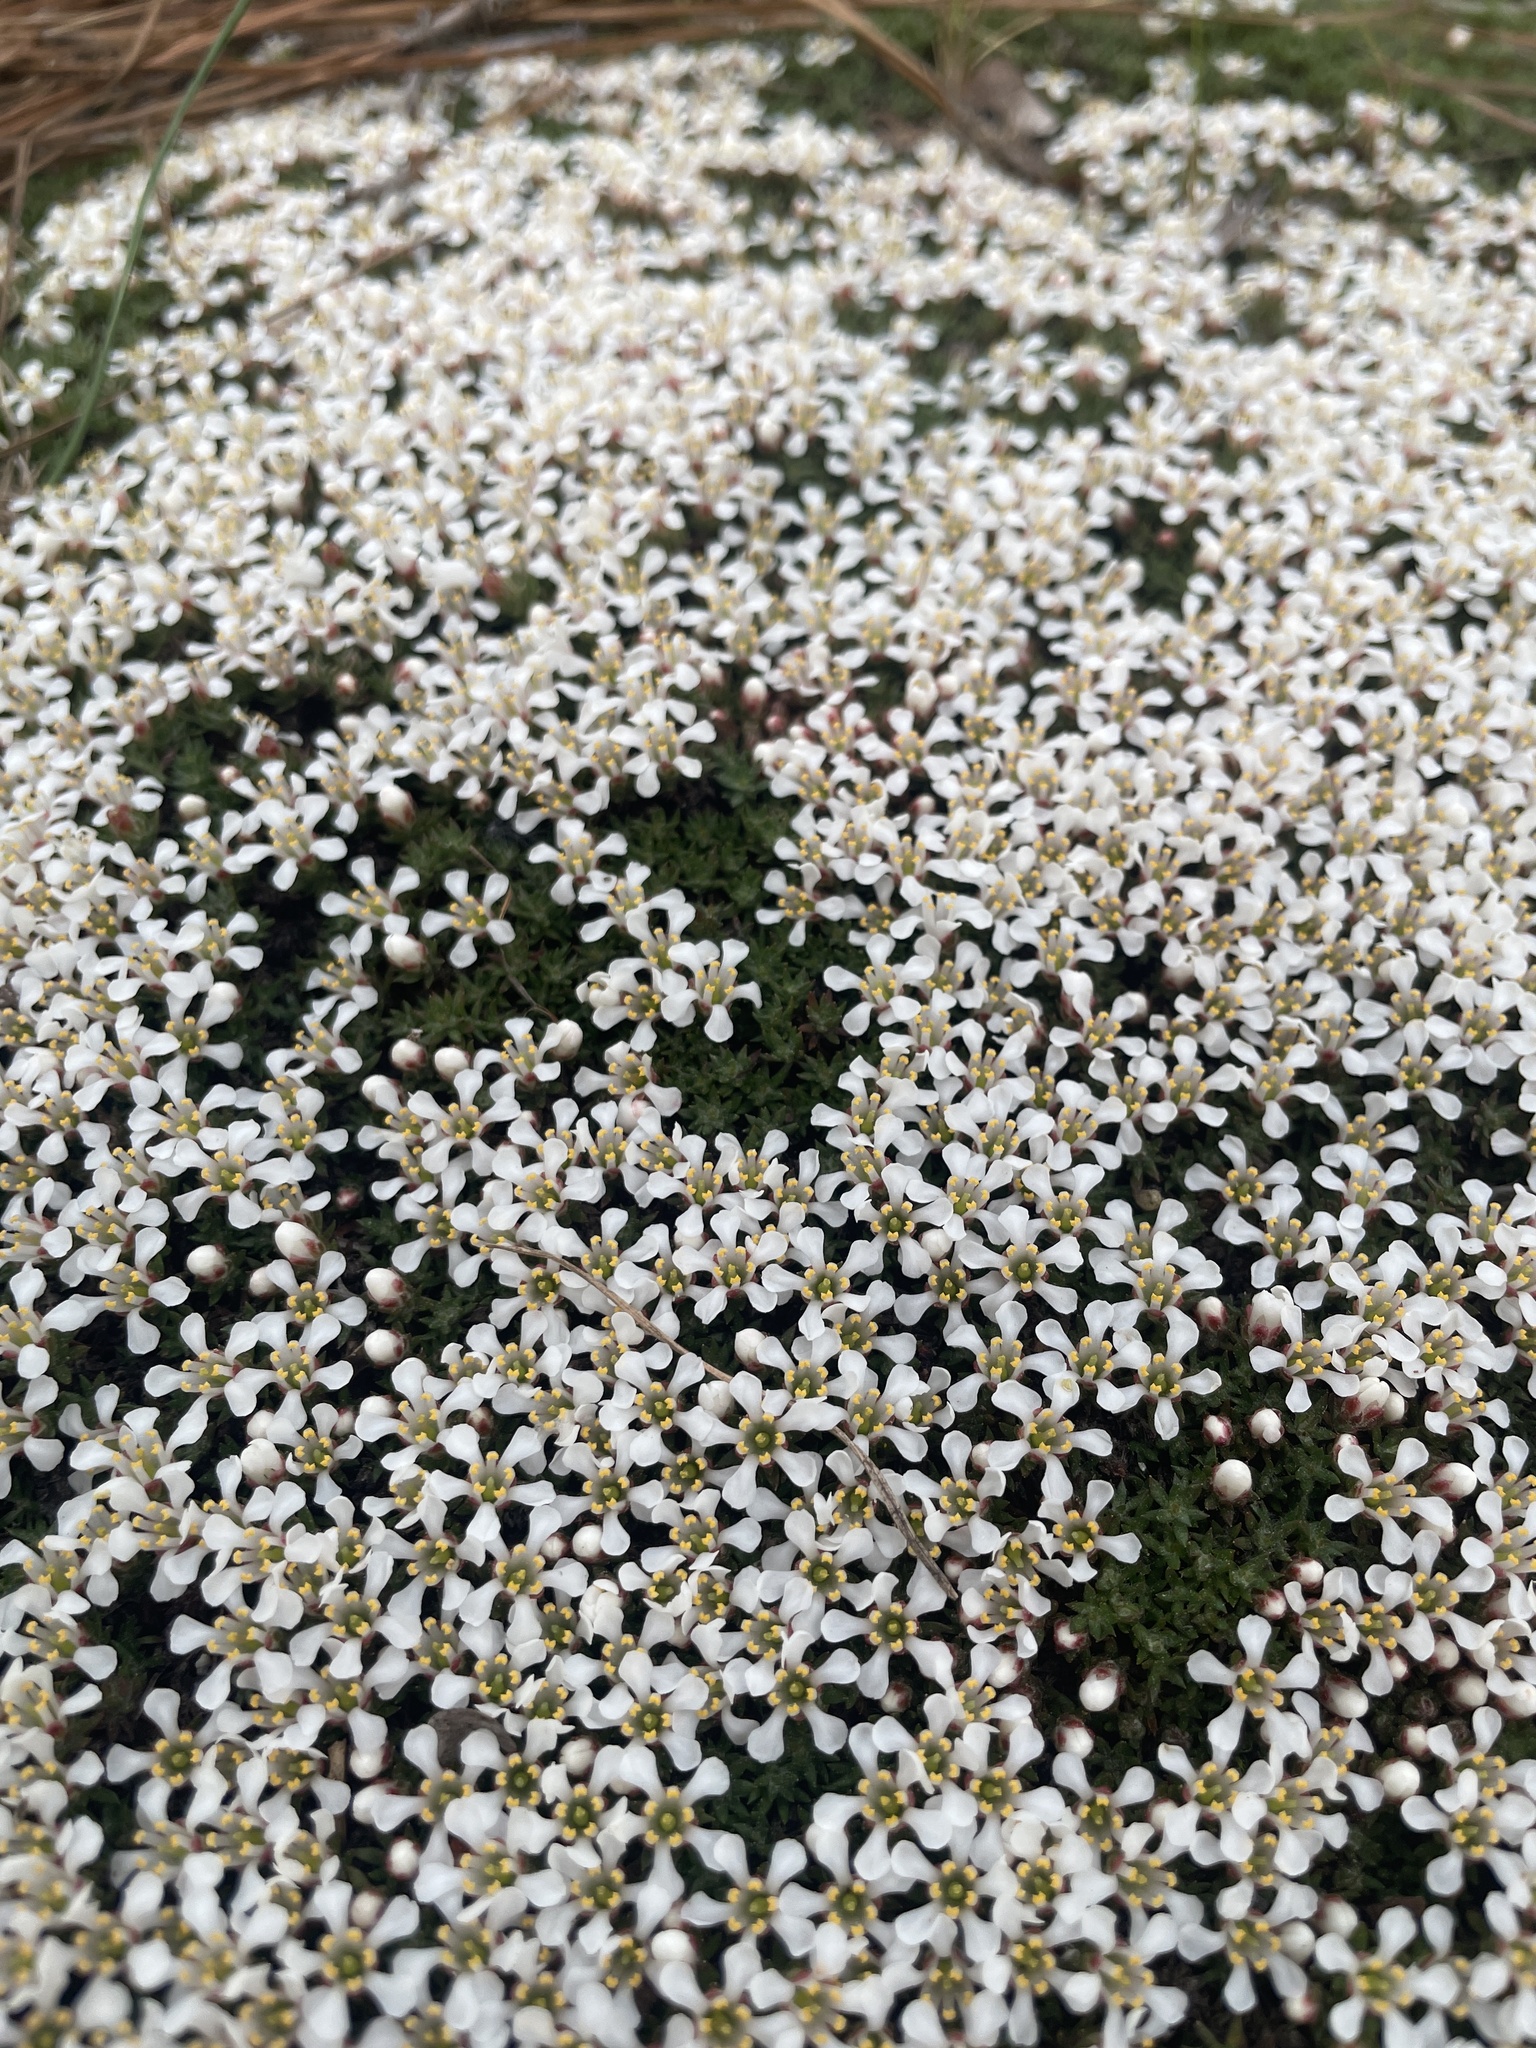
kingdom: Plantae
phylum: Tracheophyta
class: Magnoliopsida
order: Ericales
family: Diapensiaceae
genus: Pyxidanthera
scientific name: Pyxidanthera brevifolia
